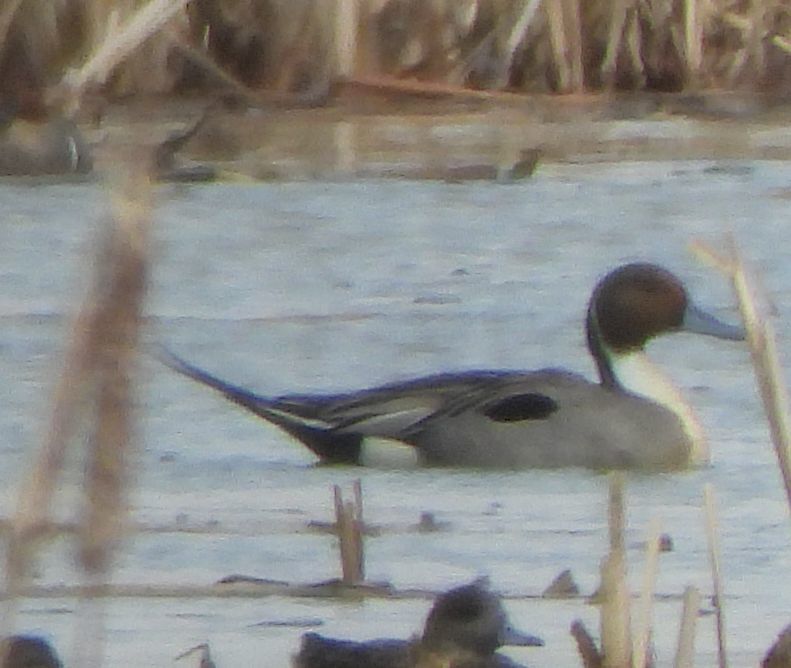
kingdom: Animalia
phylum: Chordata
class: Aves
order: Anseriformes
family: Anatidae
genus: Anas
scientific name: Anas acuta
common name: Northern pintail
